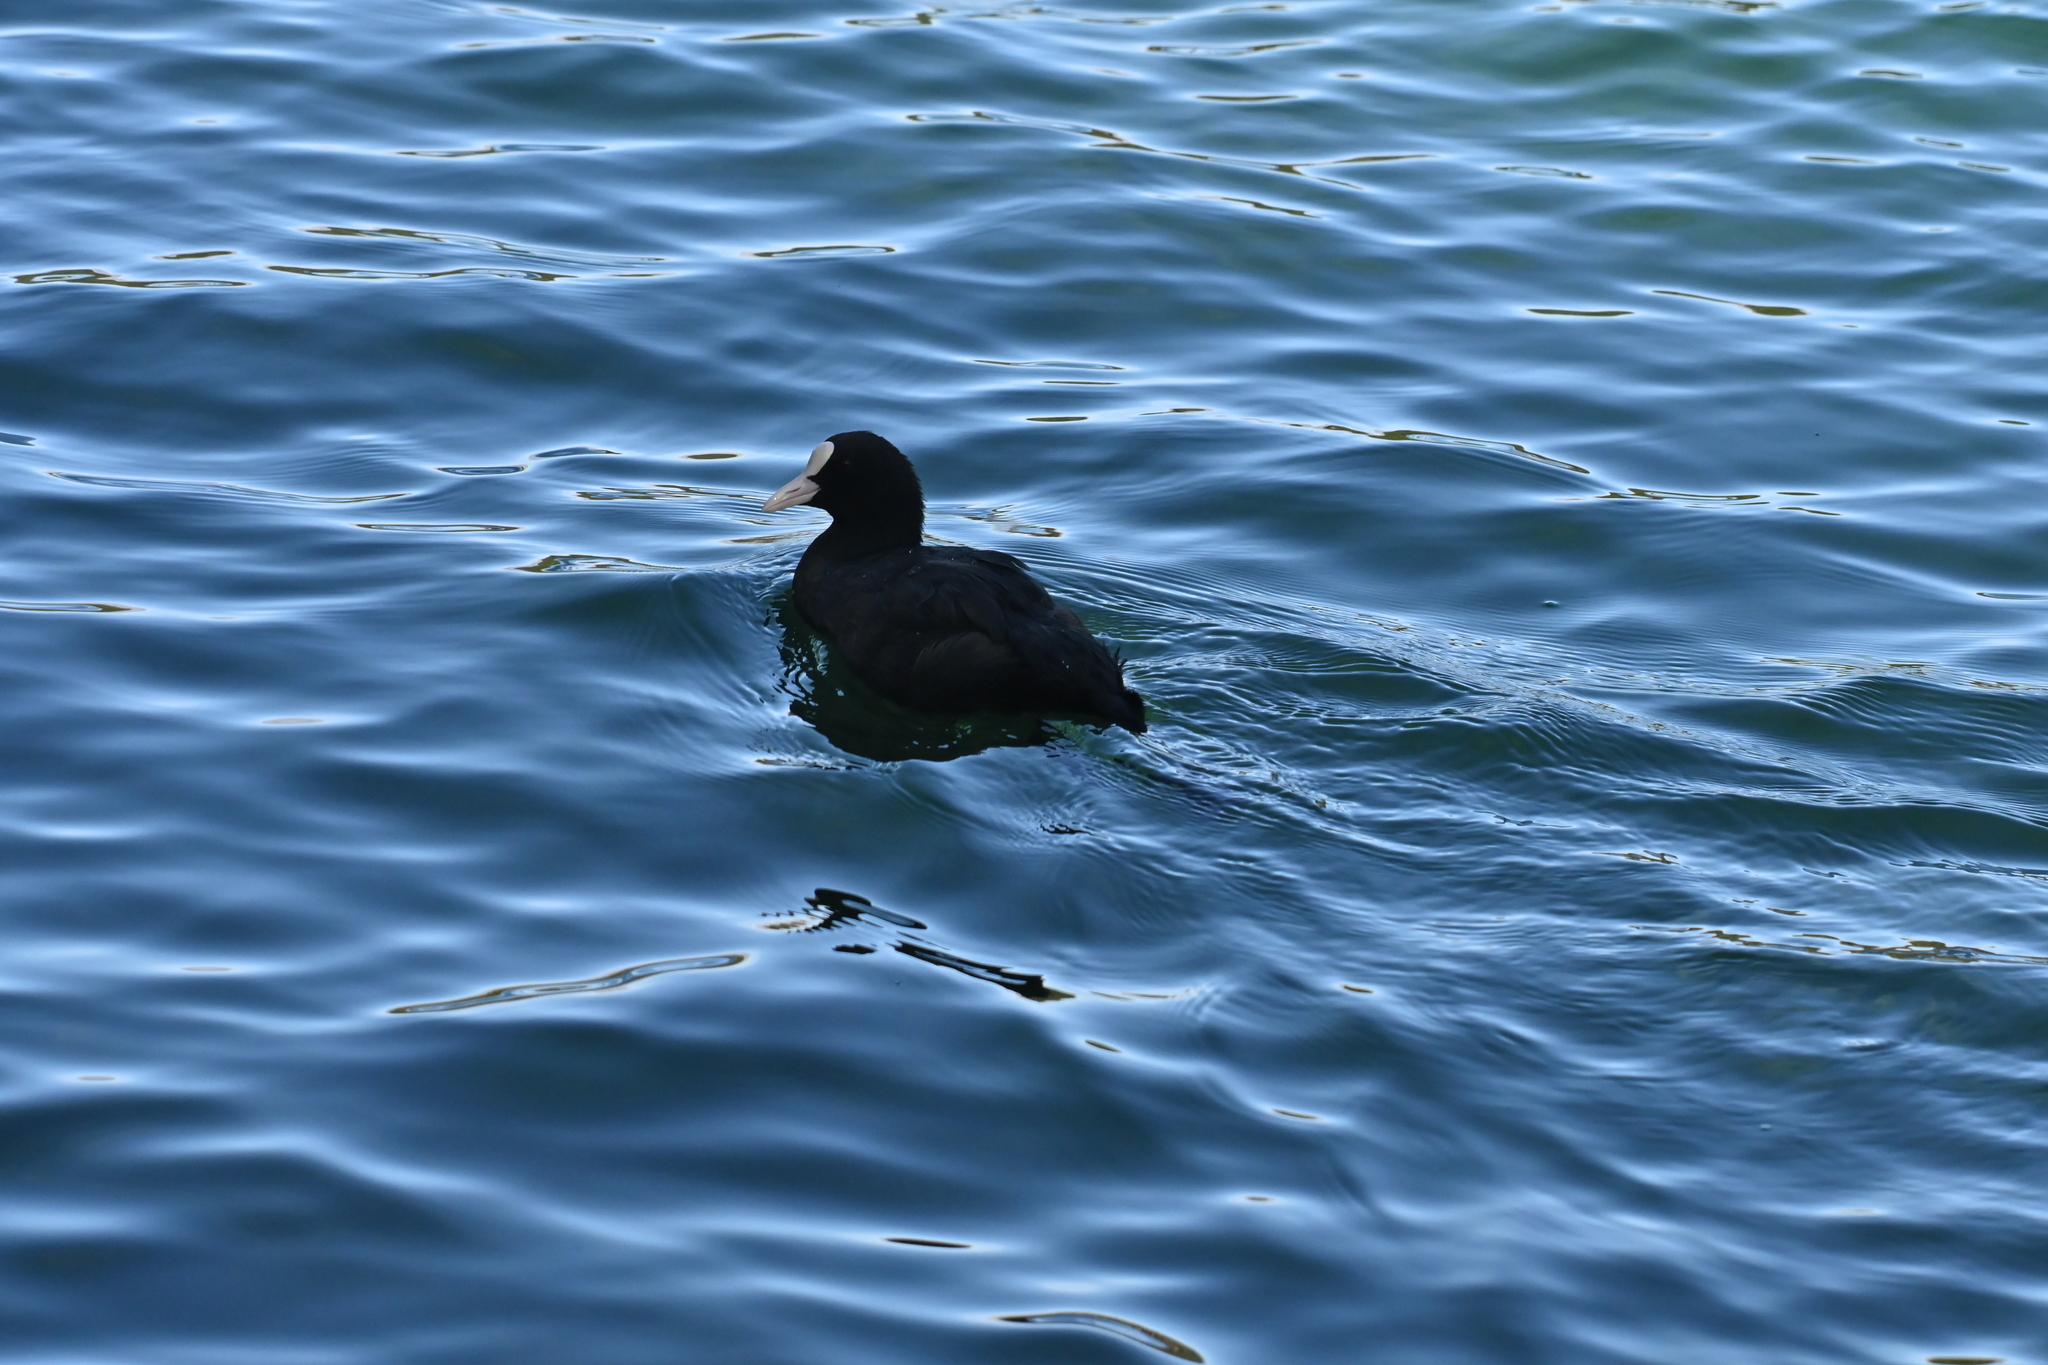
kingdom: Animalia
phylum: Chordata
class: Aves
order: Gruiformes
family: Rallidae
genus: Fulica
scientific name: Fulica atra
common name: Eurasian coot
